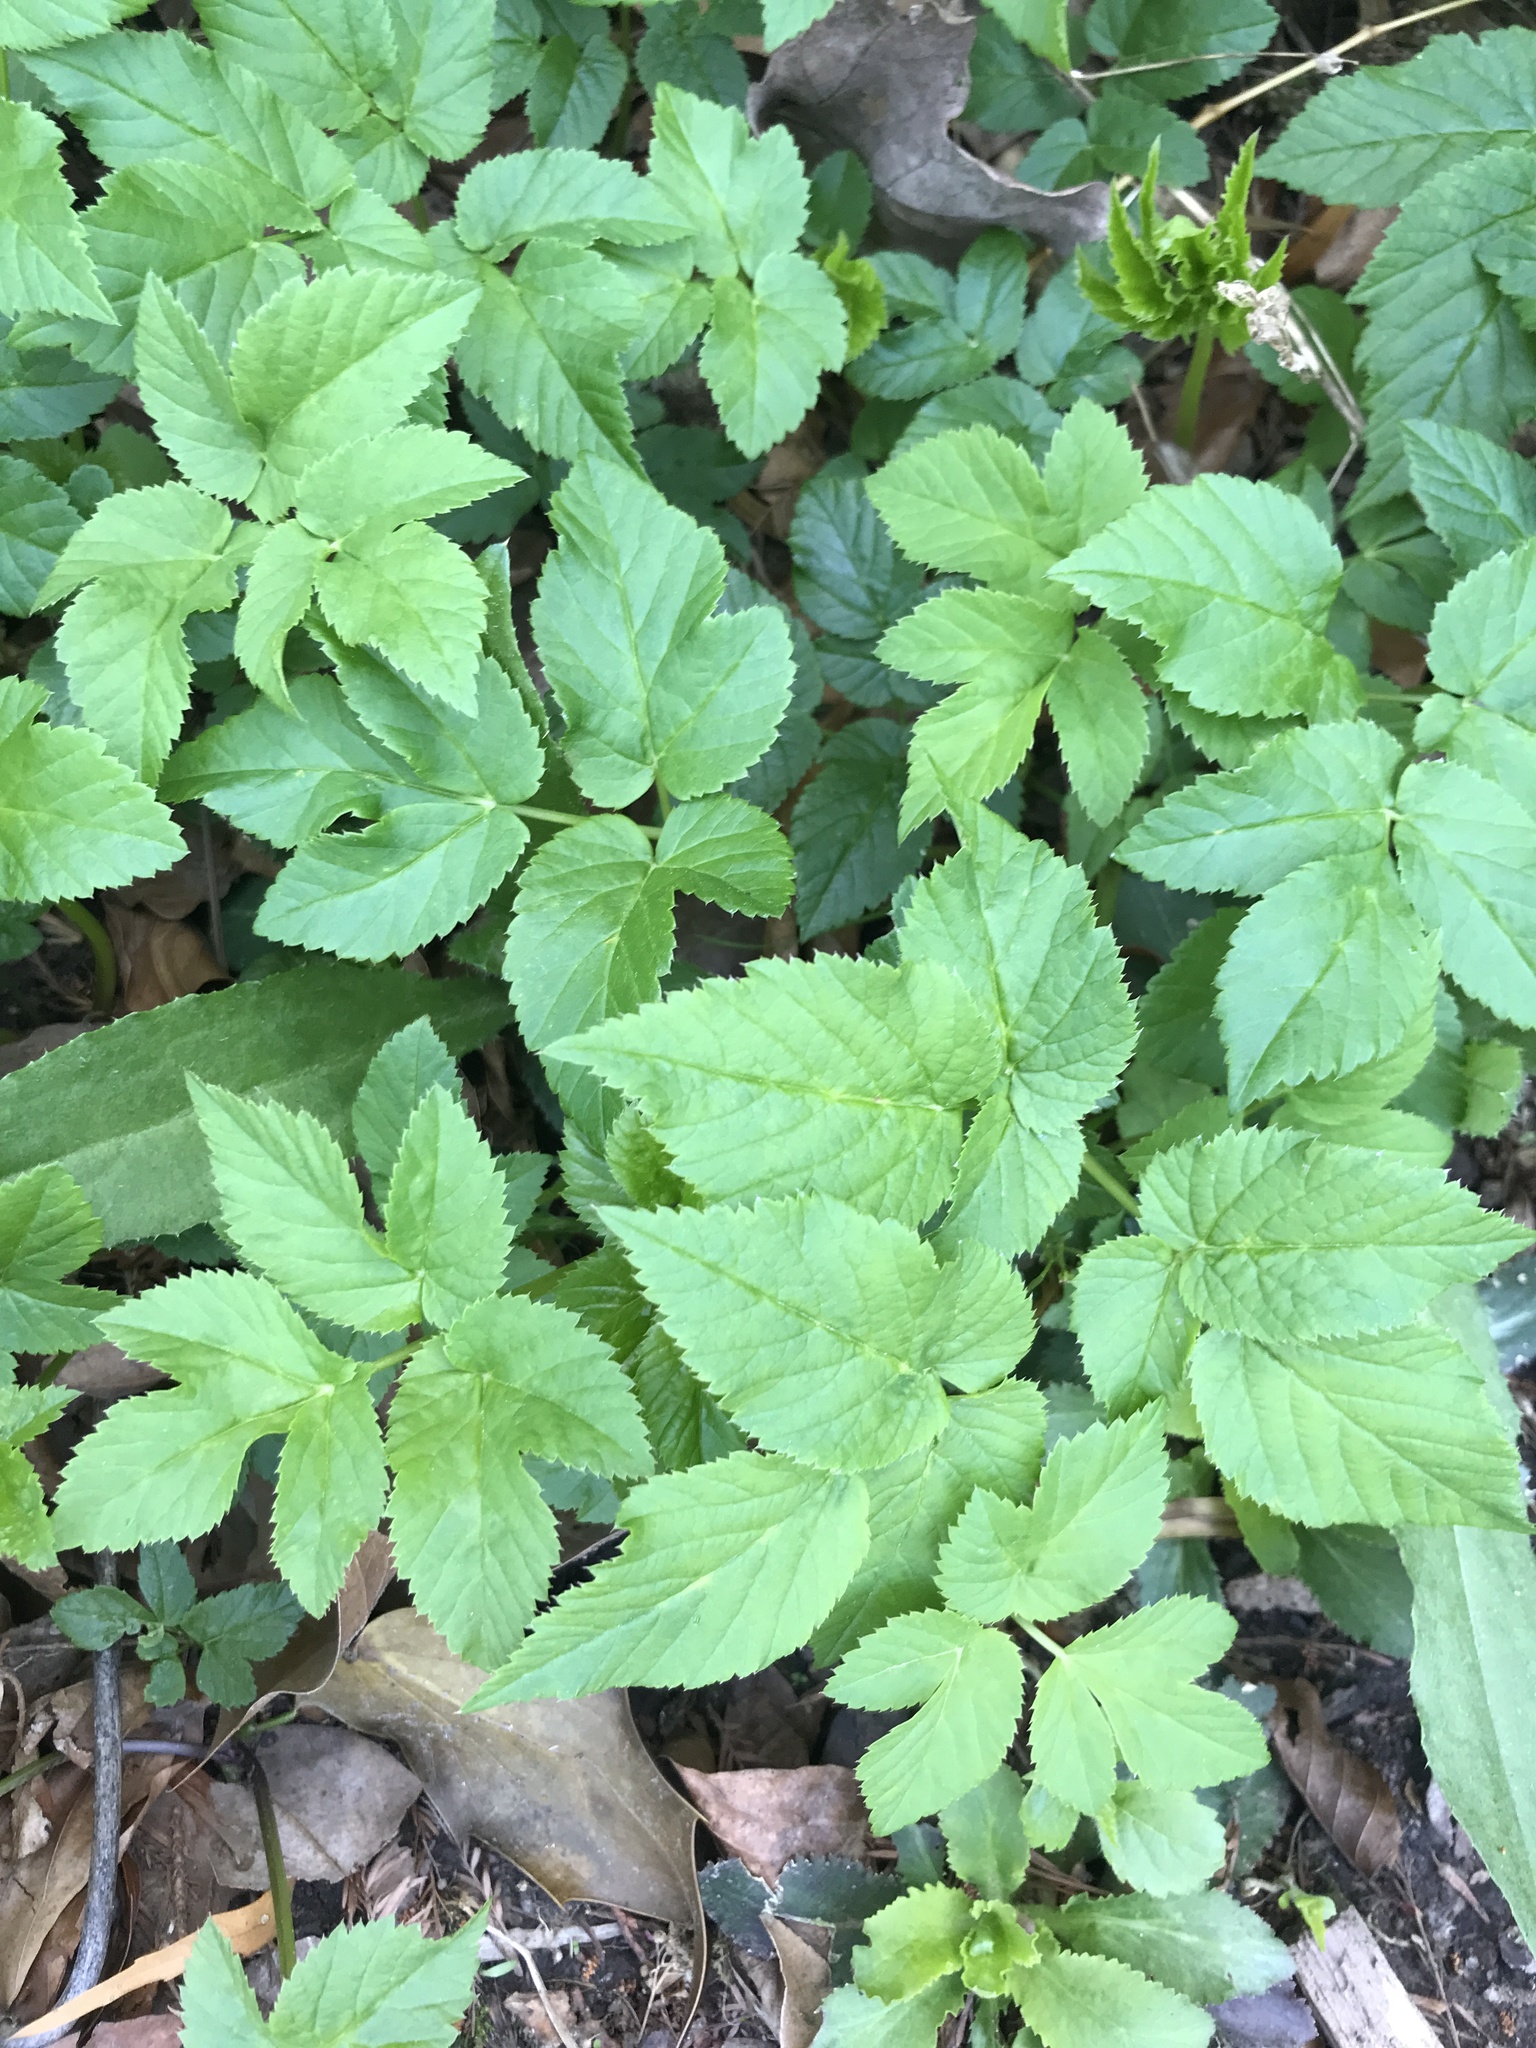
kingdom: Plantae
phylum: Tracheophyta
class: Magnoliopsida
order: Apiales
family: Apiaceae
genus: Aegopodium
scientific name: Aegopodium podagraria
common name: Ground-elder
